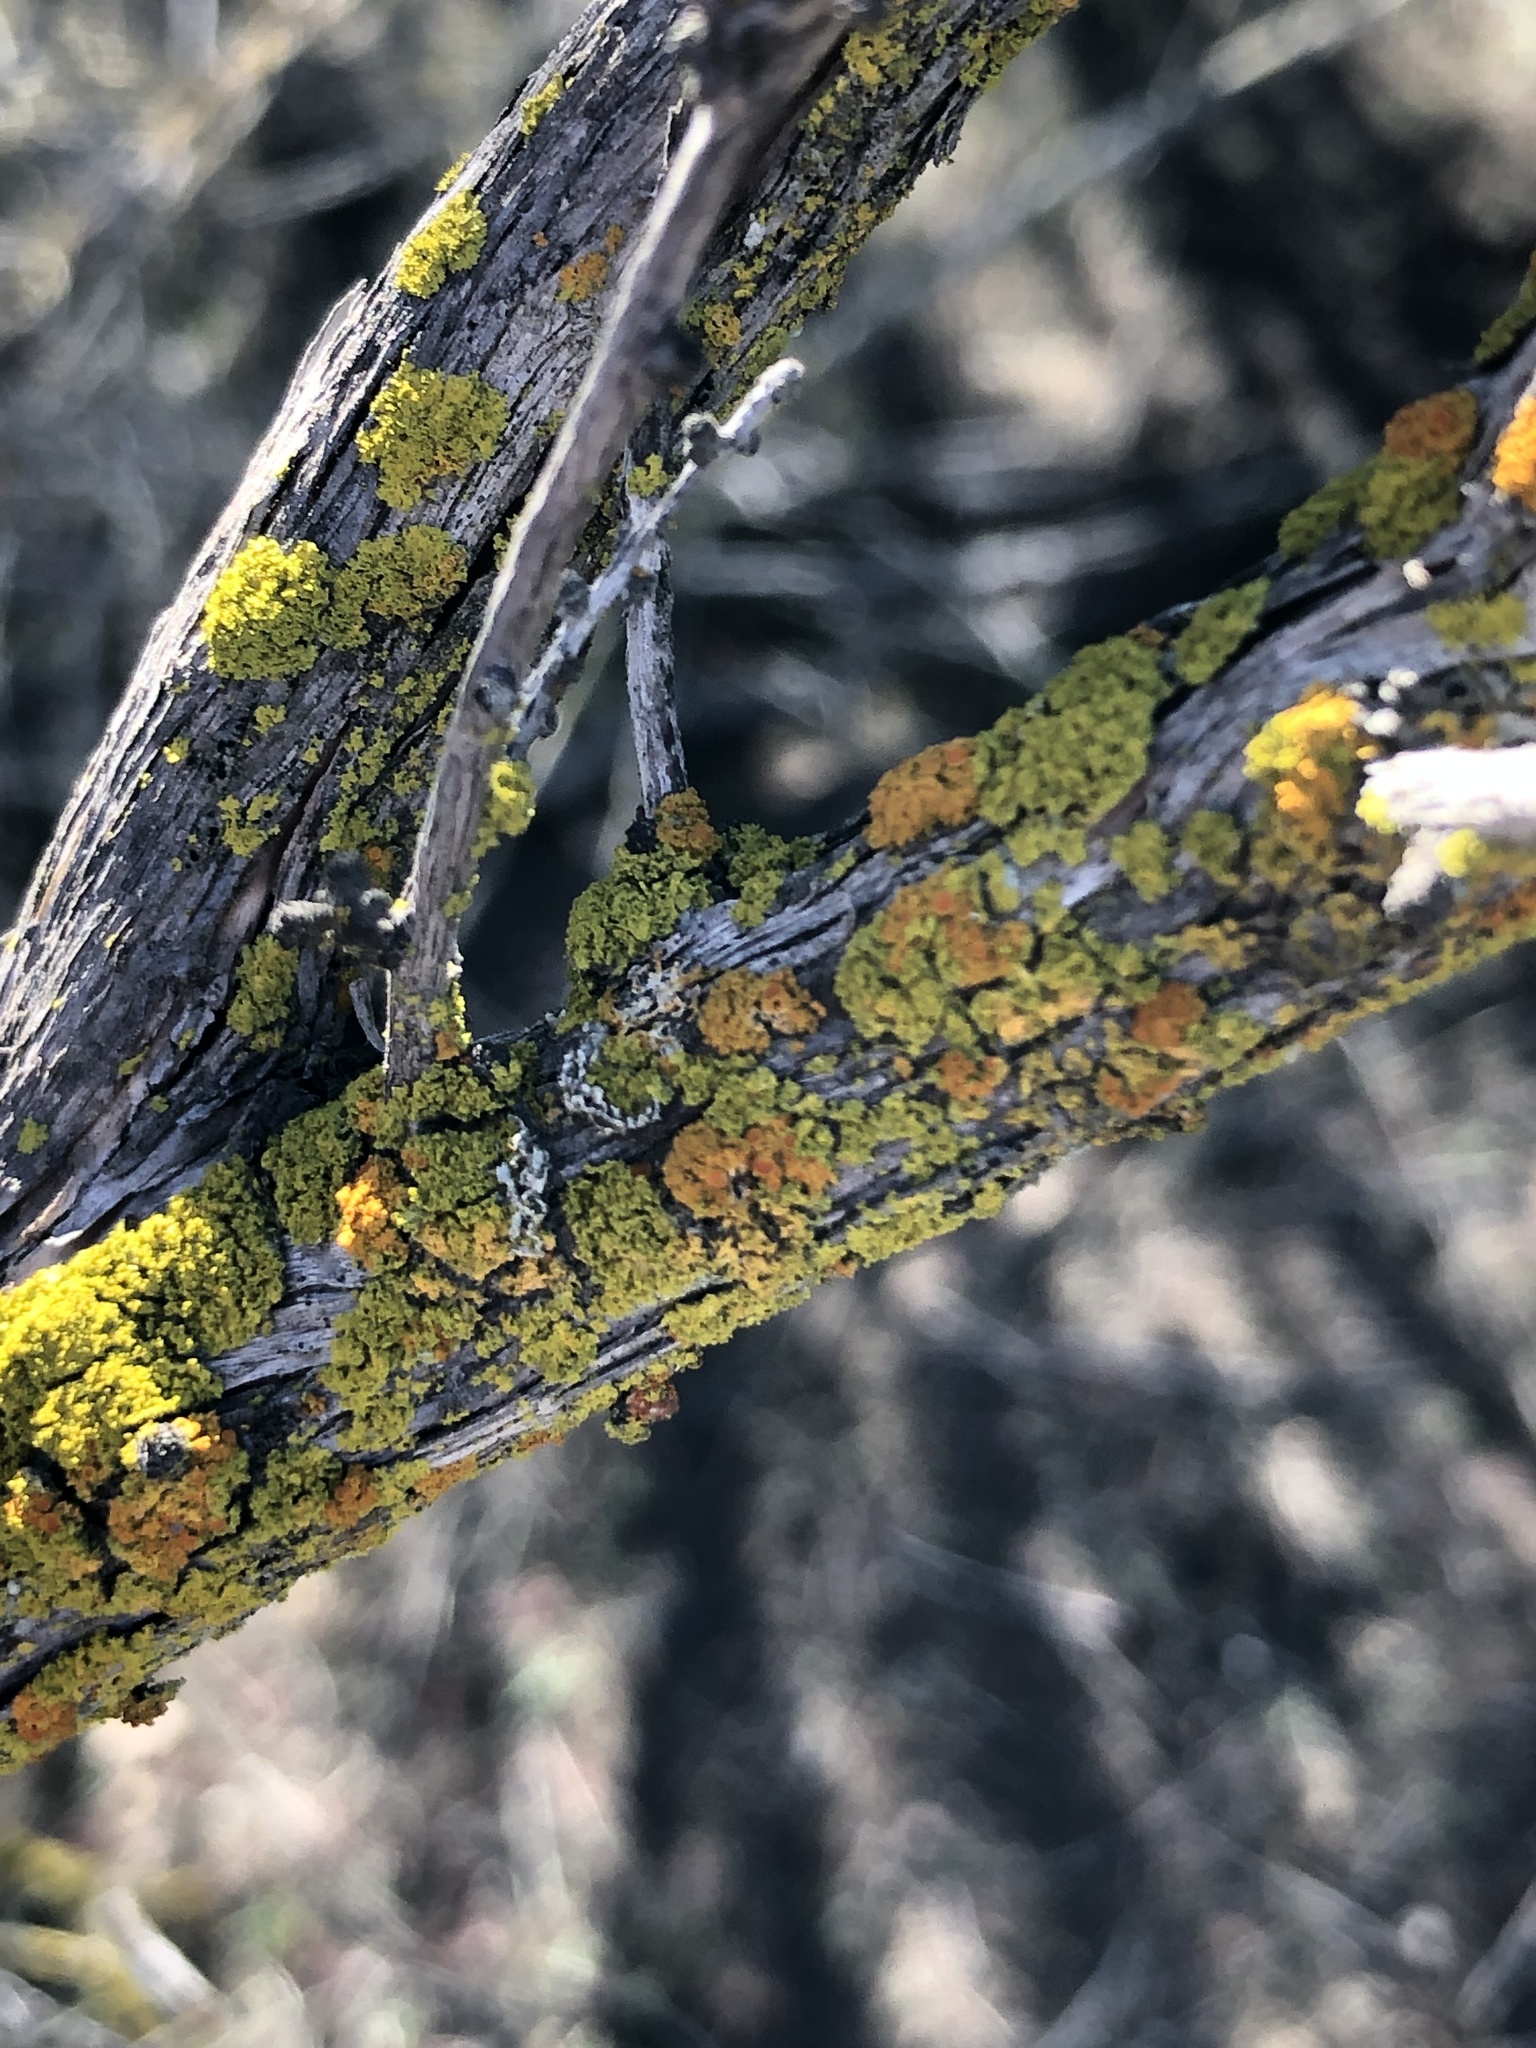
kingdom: Fungi
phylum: Ascomycota
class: Candelariomycetes
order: Candelariales
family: Candelariaceae
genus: Candelaria
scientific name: Candelaria pacifica
